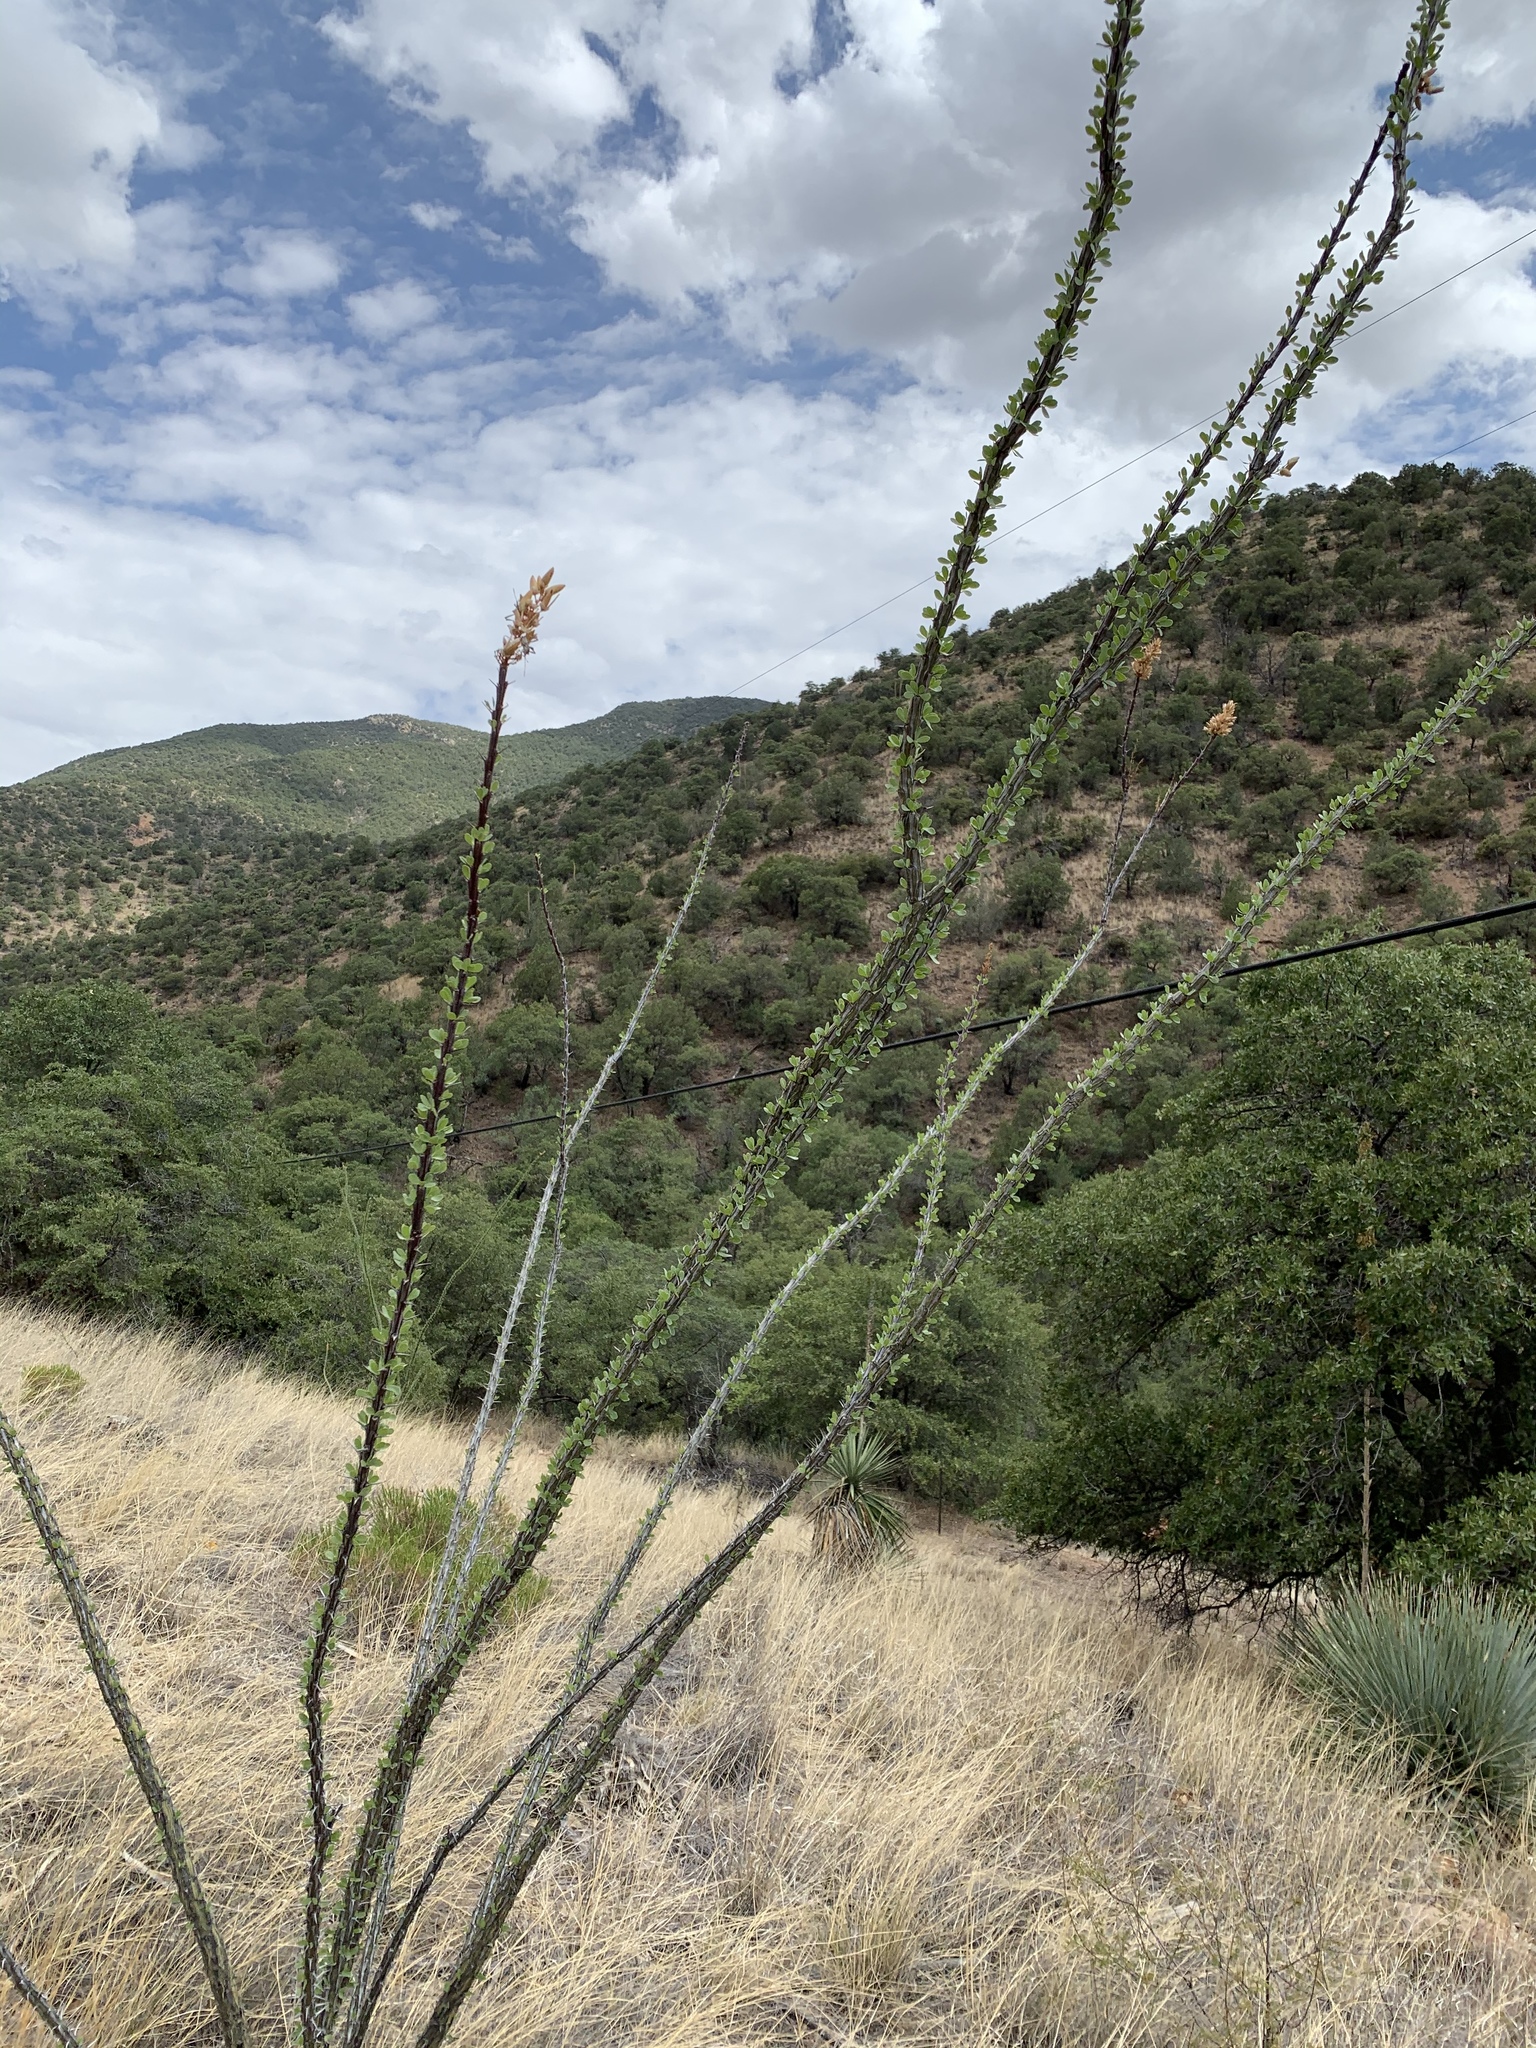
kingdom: Plantae
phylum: Tracheophyta
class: Magnoliopsida
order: Ericales
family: Fouquieriaceae
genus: Fouquieria
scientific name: Fouquieria splendens
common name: Vine-cactus
